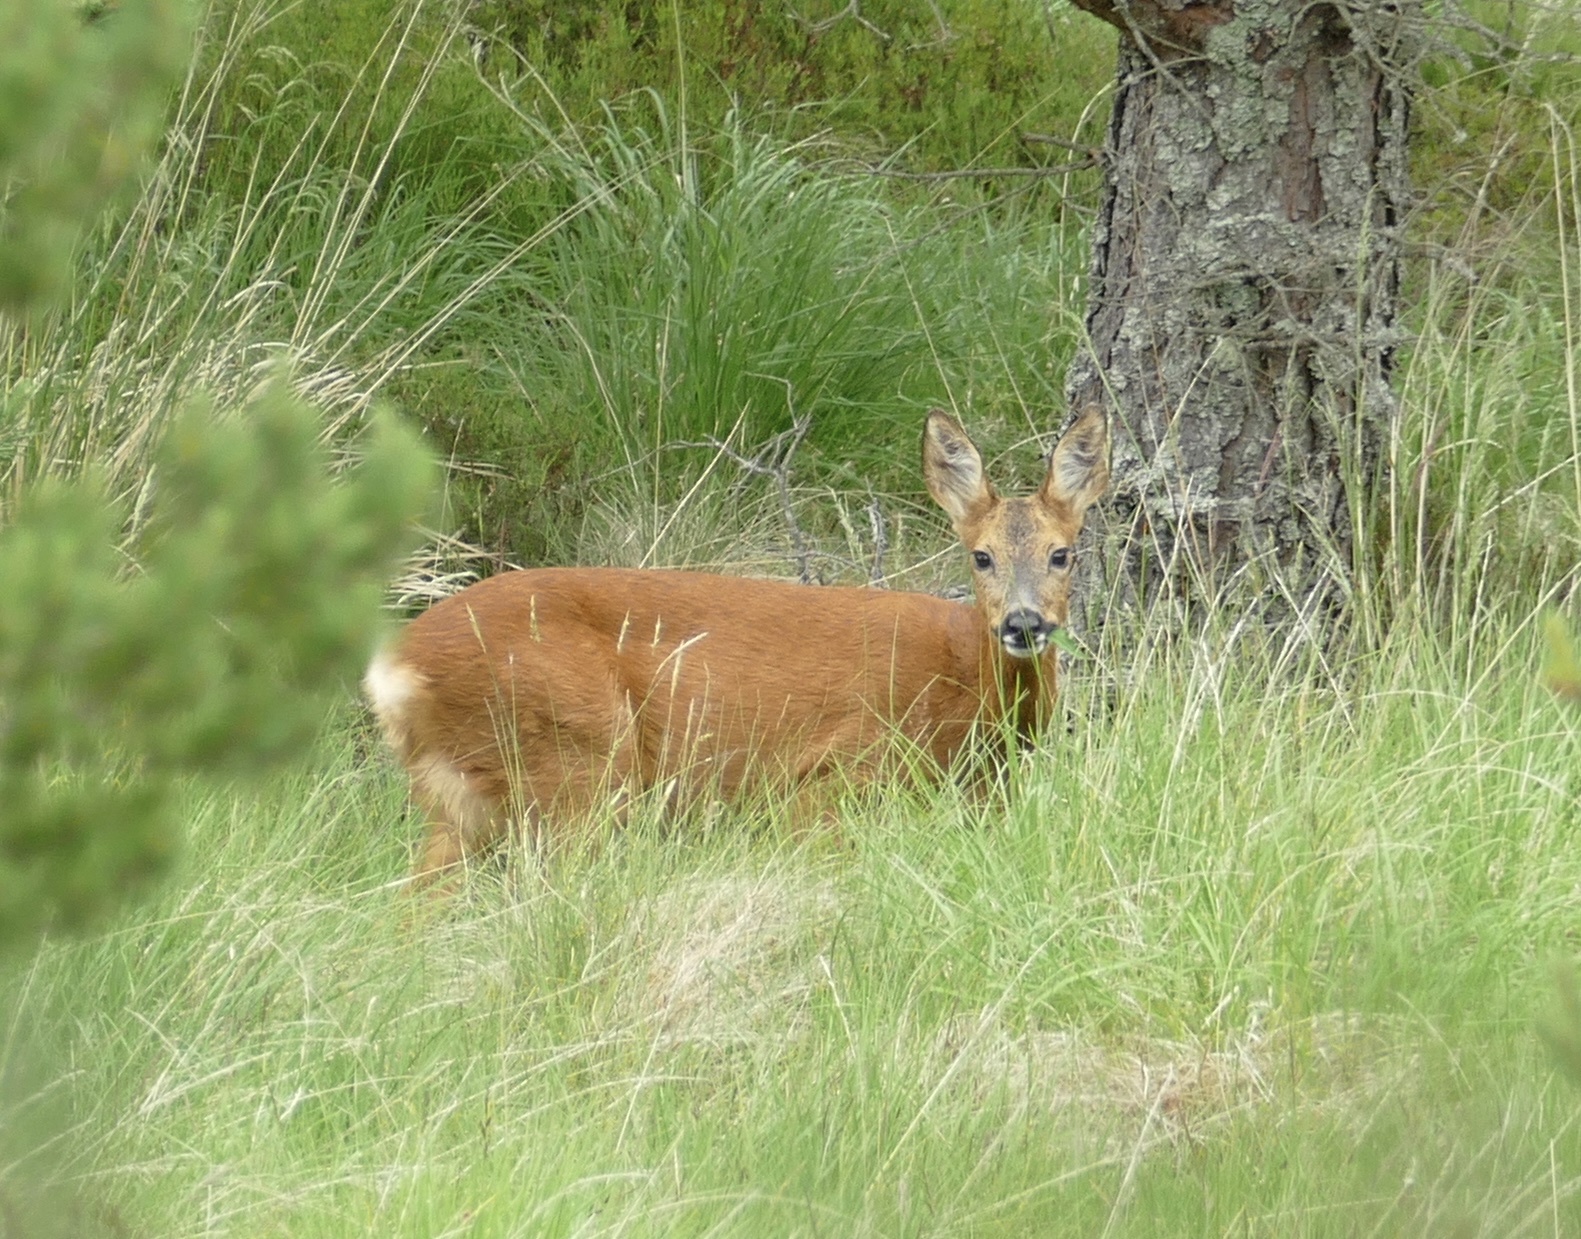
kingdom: Animalia
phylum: Chordata
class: Mammalia
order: Artiodactyla
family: Cervidae
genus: Capreolus
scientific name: Capreolus capreolus
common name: Western roe deer
